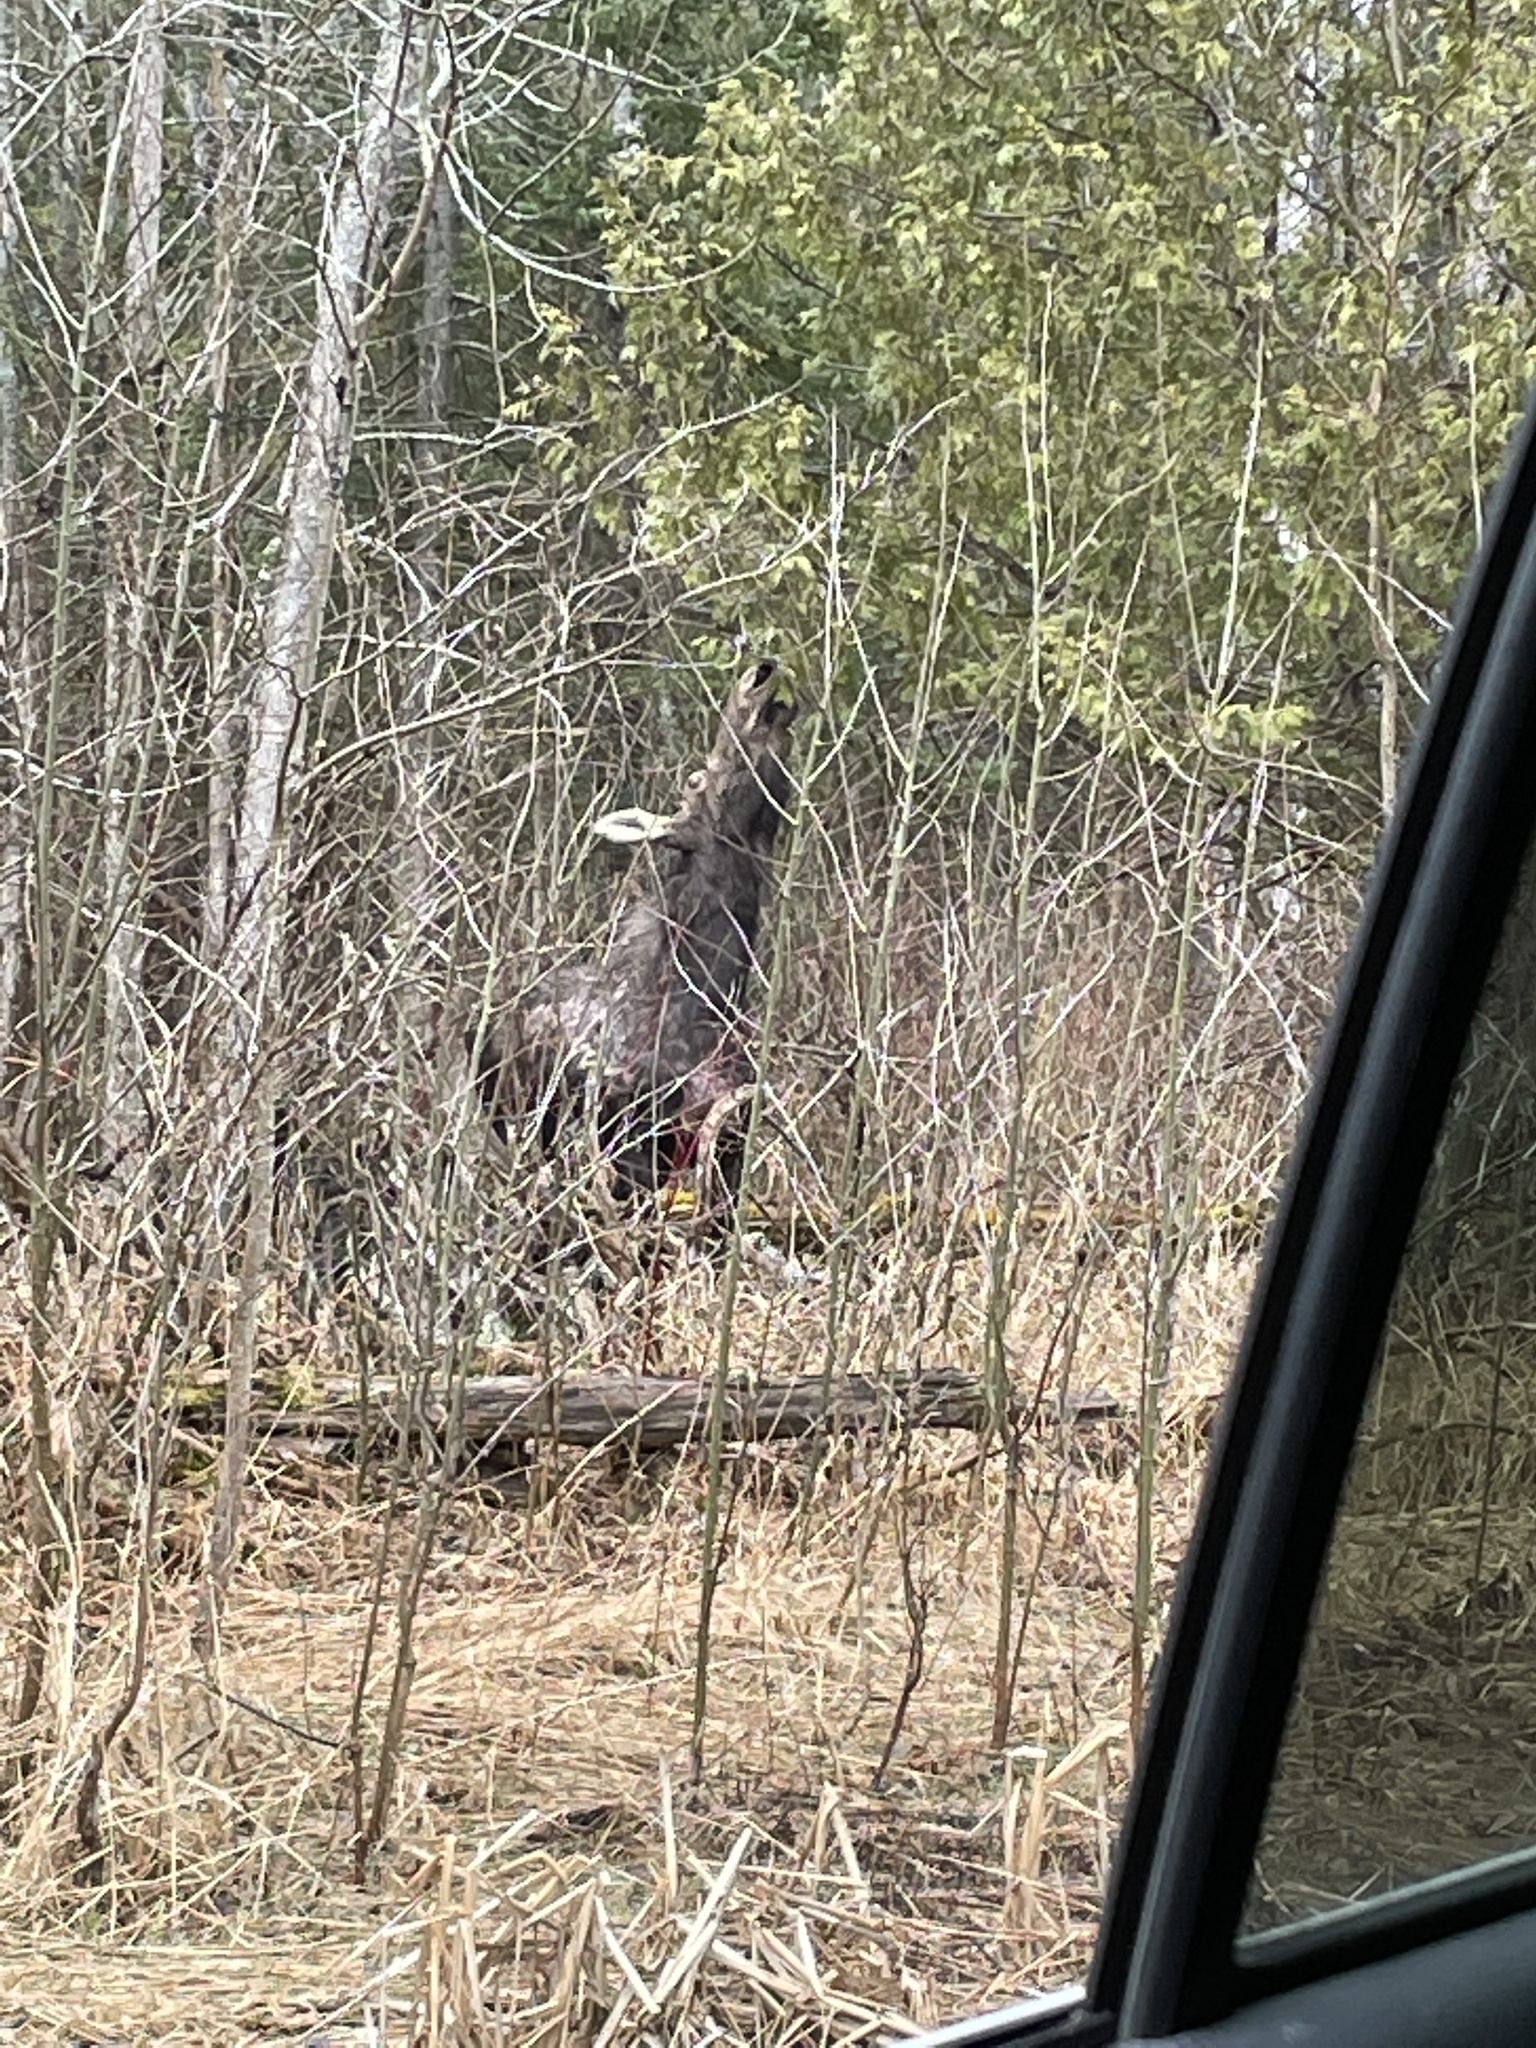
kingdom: Animalia
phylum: Chordata
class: Mammalia
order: Artiodactyla
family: Cervidae
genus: Alces
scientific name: Alces alces
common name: Moose
